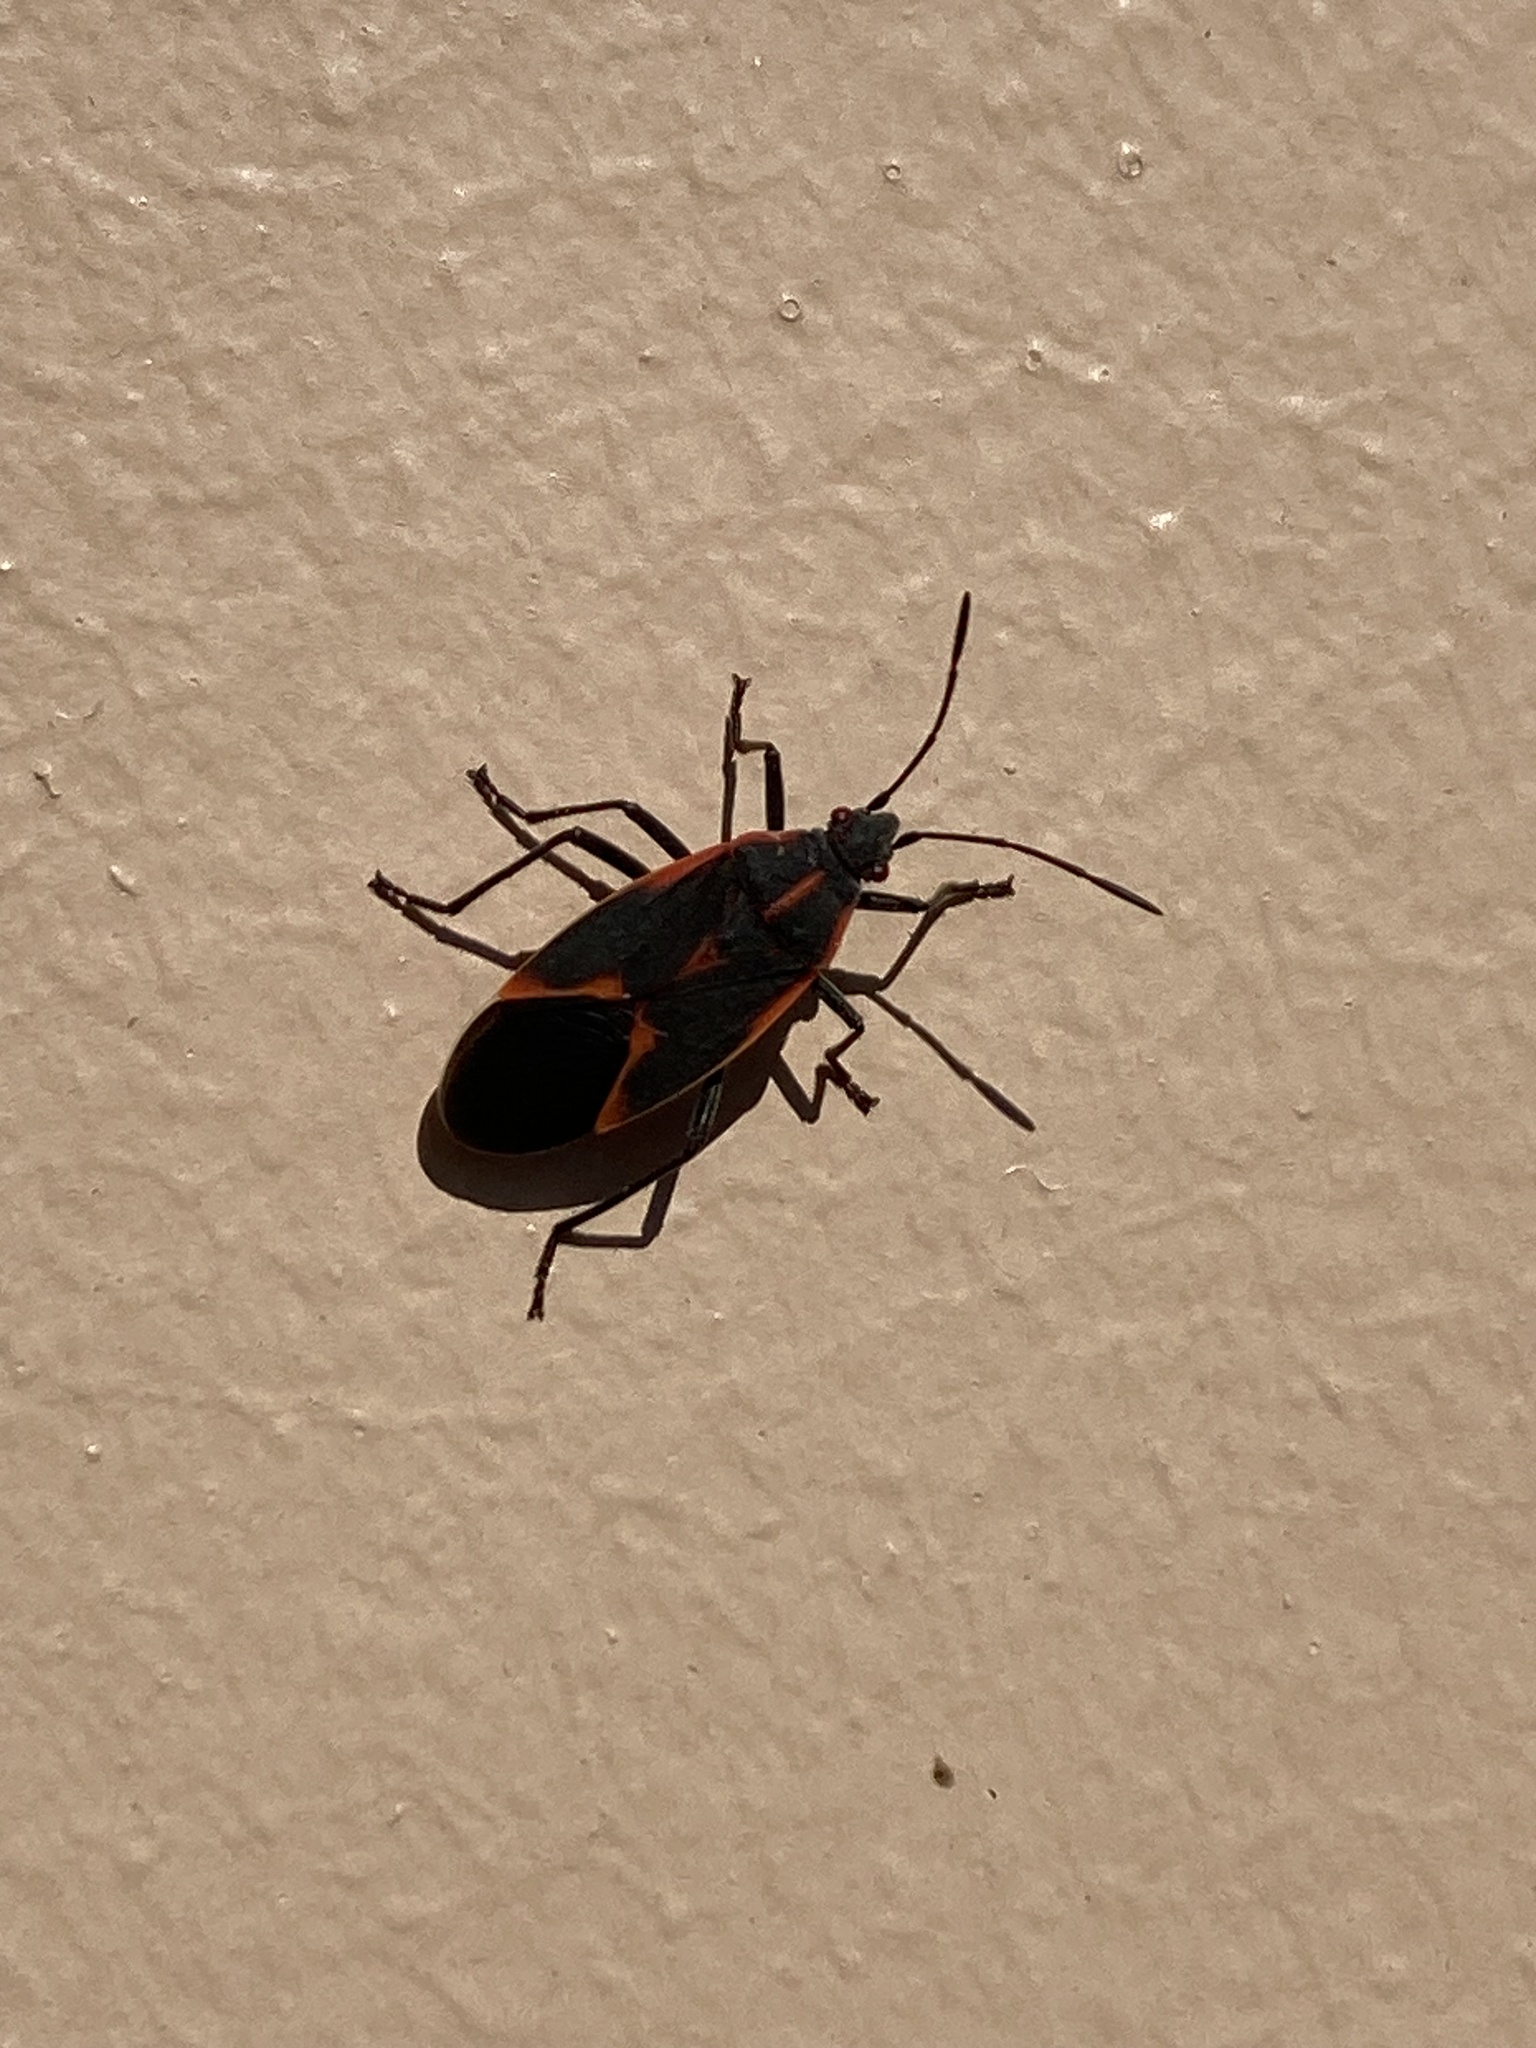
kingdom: Animalia
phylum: Arthropoda
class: Insecta
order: Hemiptera
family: Rhopalidae
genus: Boisea
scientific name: Boisea trivittata
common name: Boxelder bug
